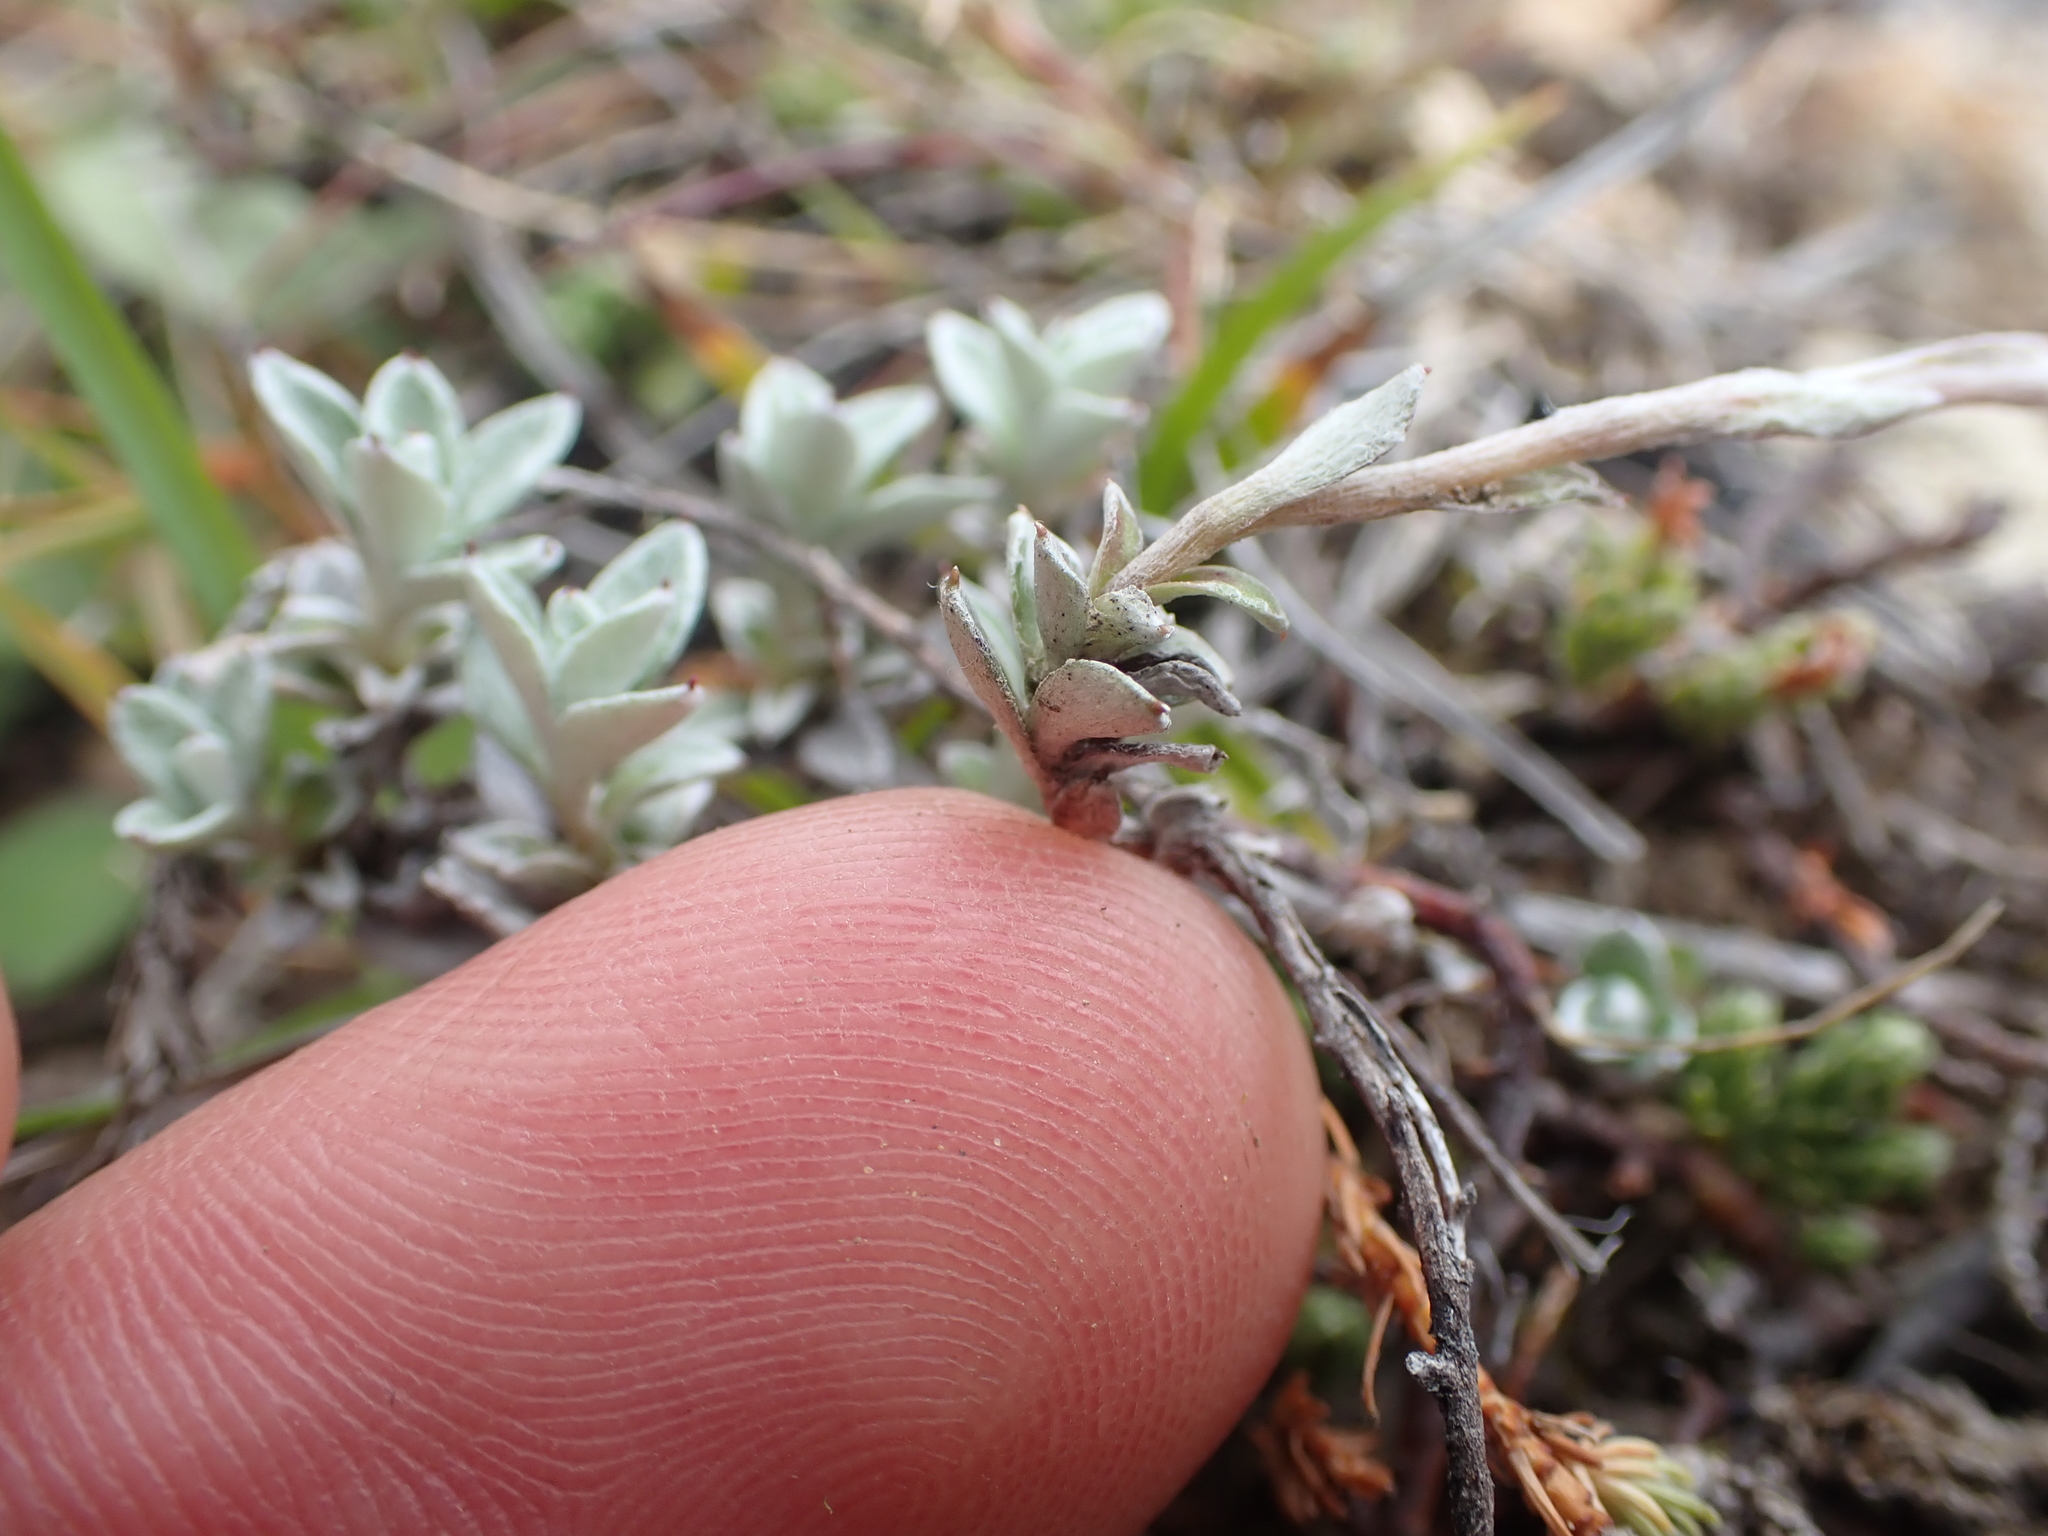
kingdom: Plantae
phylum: Tracheophyta
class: Magnoliopsida
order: Asterales
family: Asteraceae
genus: Anaphalioides
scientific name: Anaphalioides bellidioides
